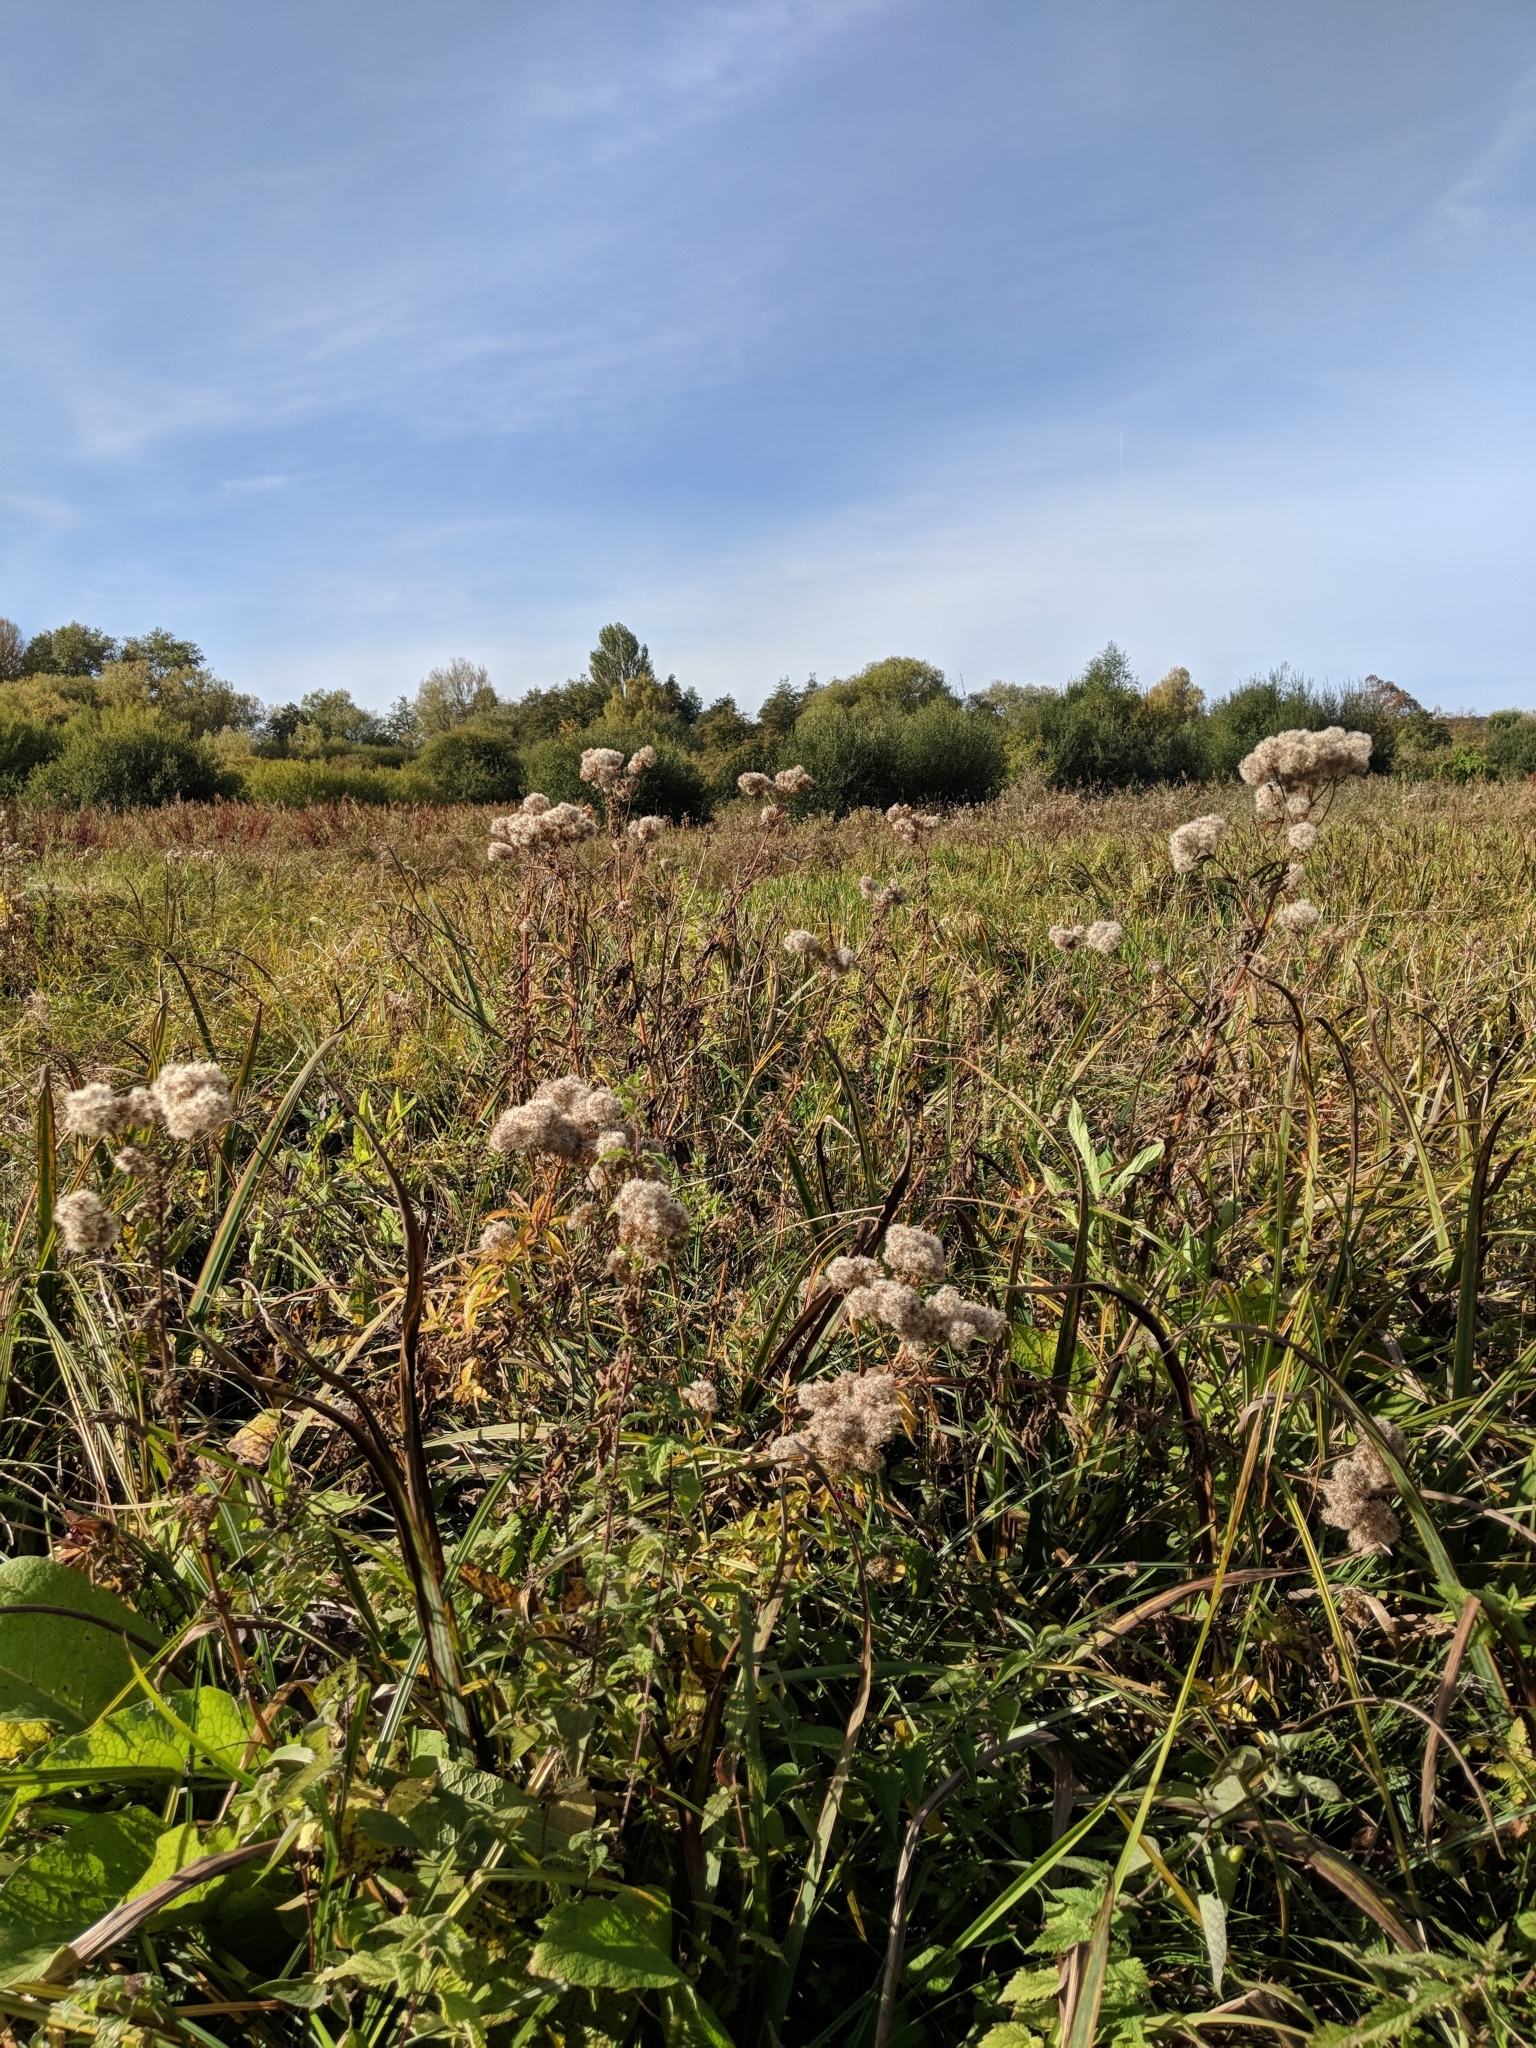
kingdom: Plantae
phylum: Tracheophyta
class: Magnoliopsida
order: Asterales
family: Asteraceae
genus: Eupatorium
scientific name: Eupatorium cannabinum
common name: Hemp-agrimony
